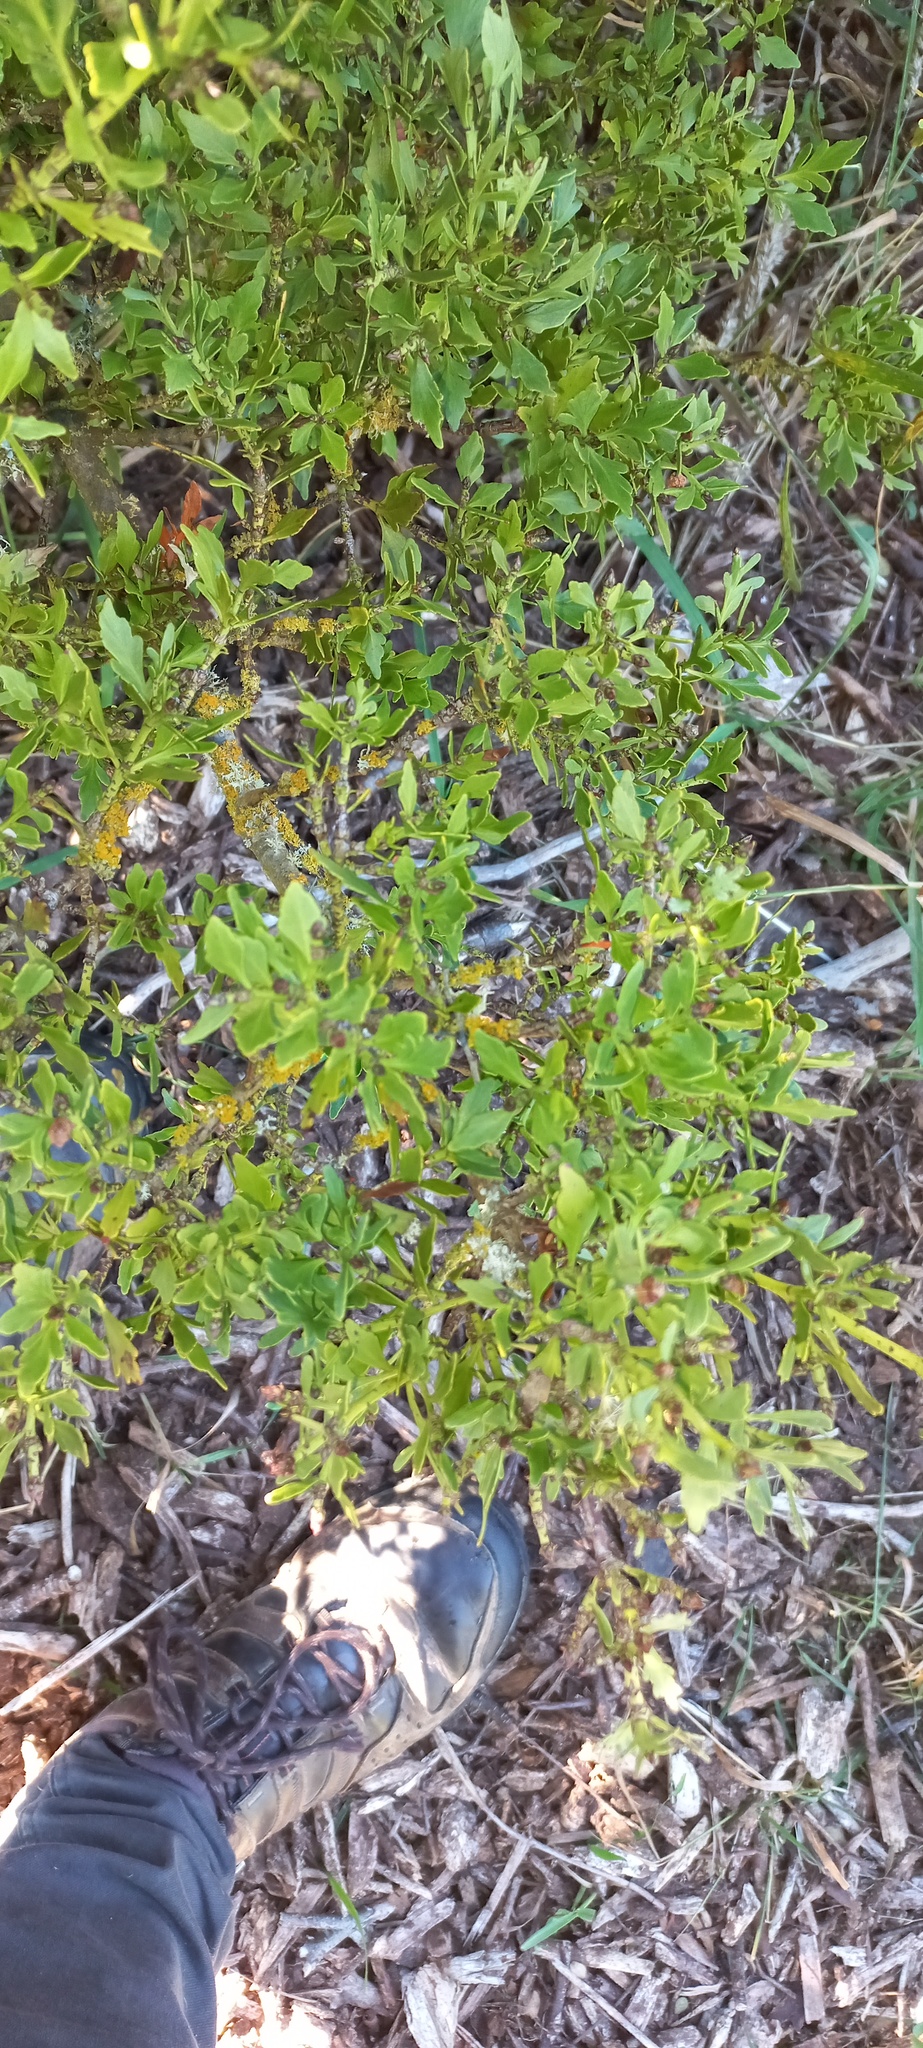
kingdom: Plantae
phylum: Tracheophyta
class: Pinopsida
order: Pinales
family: Phyllocladaceae
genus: Phyllocladus
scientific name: Phyllocladus trichomanoides
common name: Celery pine
